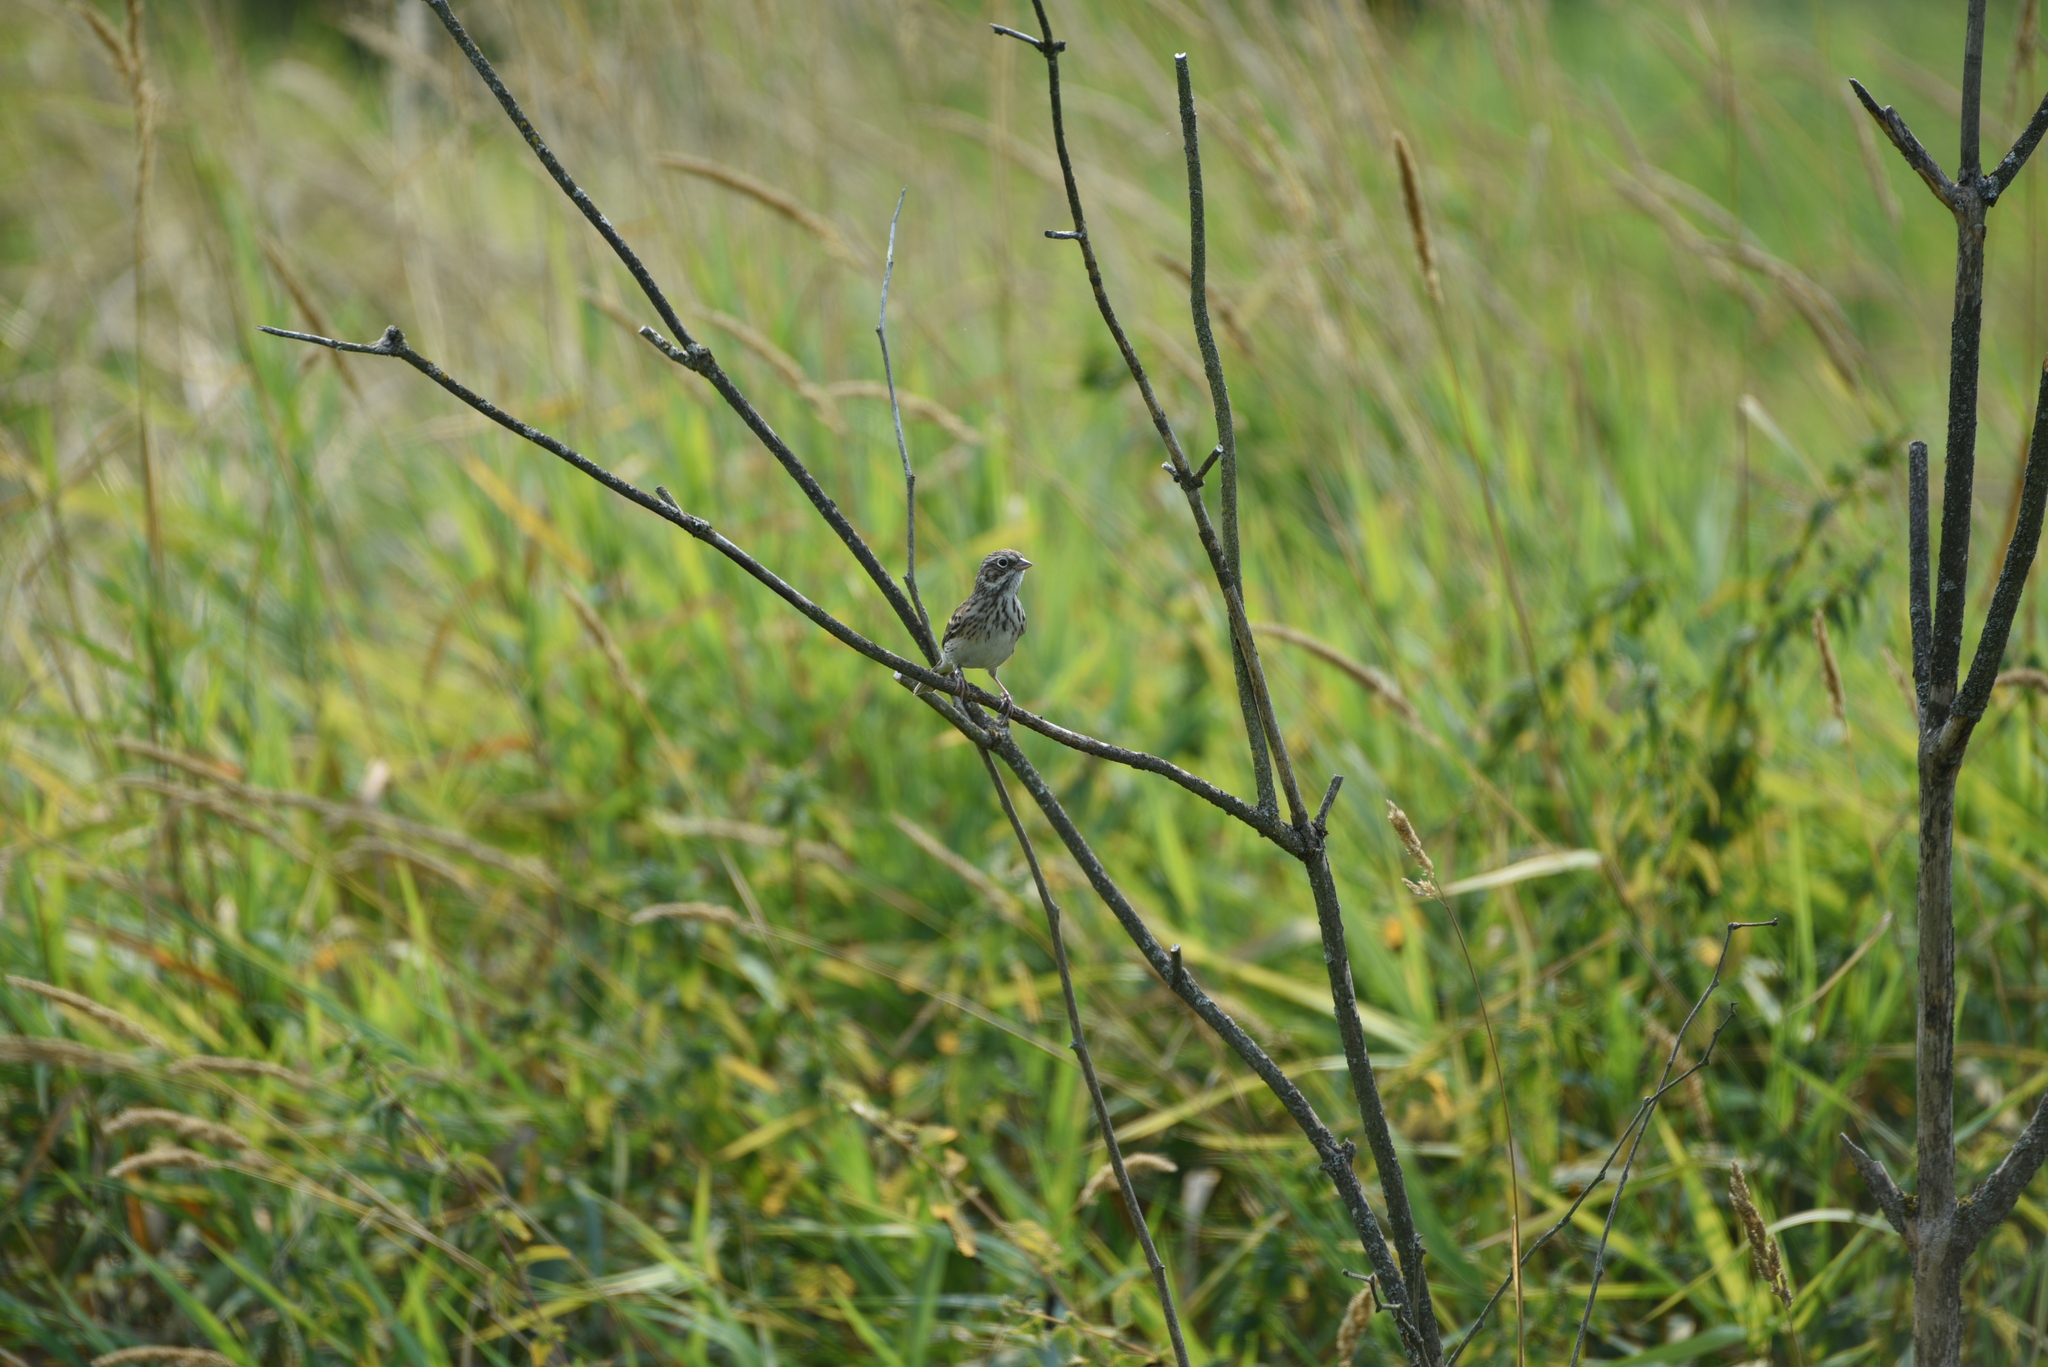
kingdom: Animalia
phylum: Chordata
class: Aves
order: Passeriformes
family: Passerellidae
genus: Pooecetes
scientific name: Pooecetes gramineus
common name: Vesper sparrow
